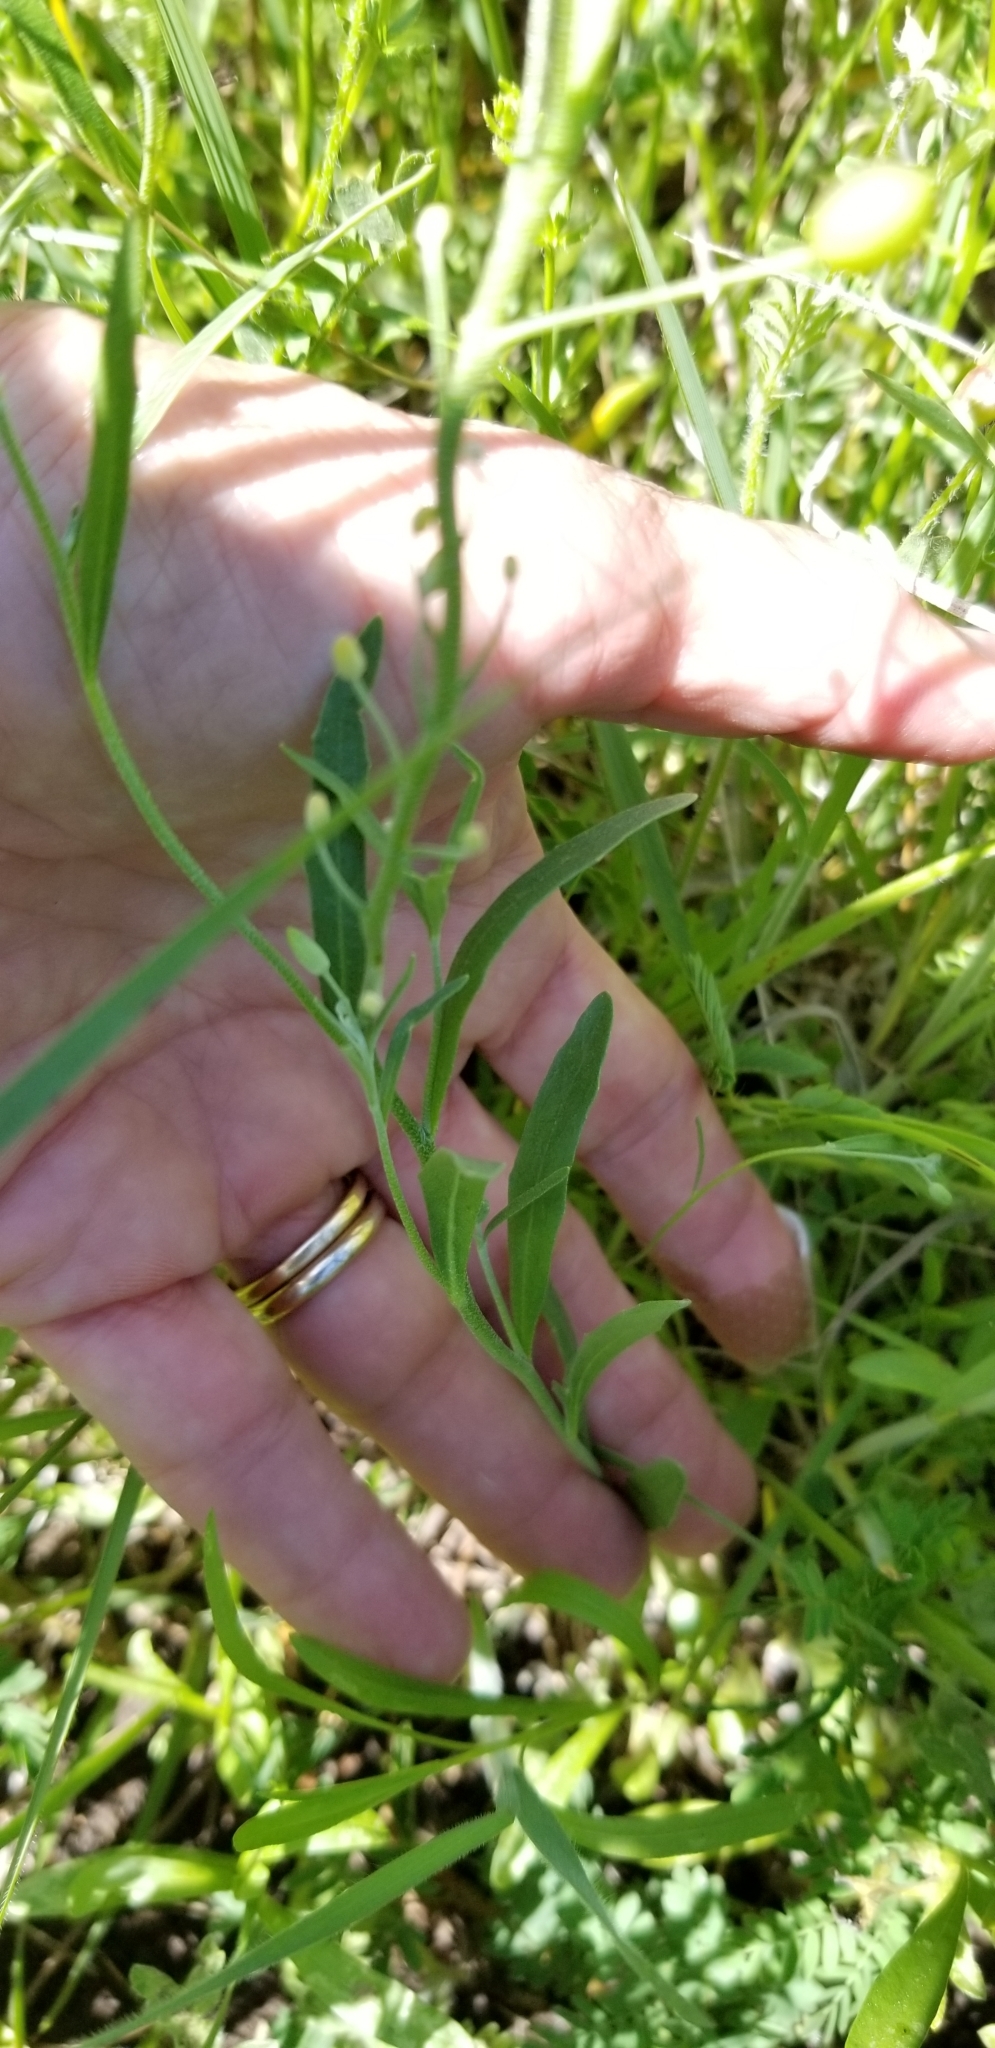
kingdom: Plantae
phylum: Tracheophyta
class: Magnoliopsida
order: Brassicales
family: Brassicaceae
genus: Physaria
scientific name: Physaria gracilis
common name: Spreading bladderpod
